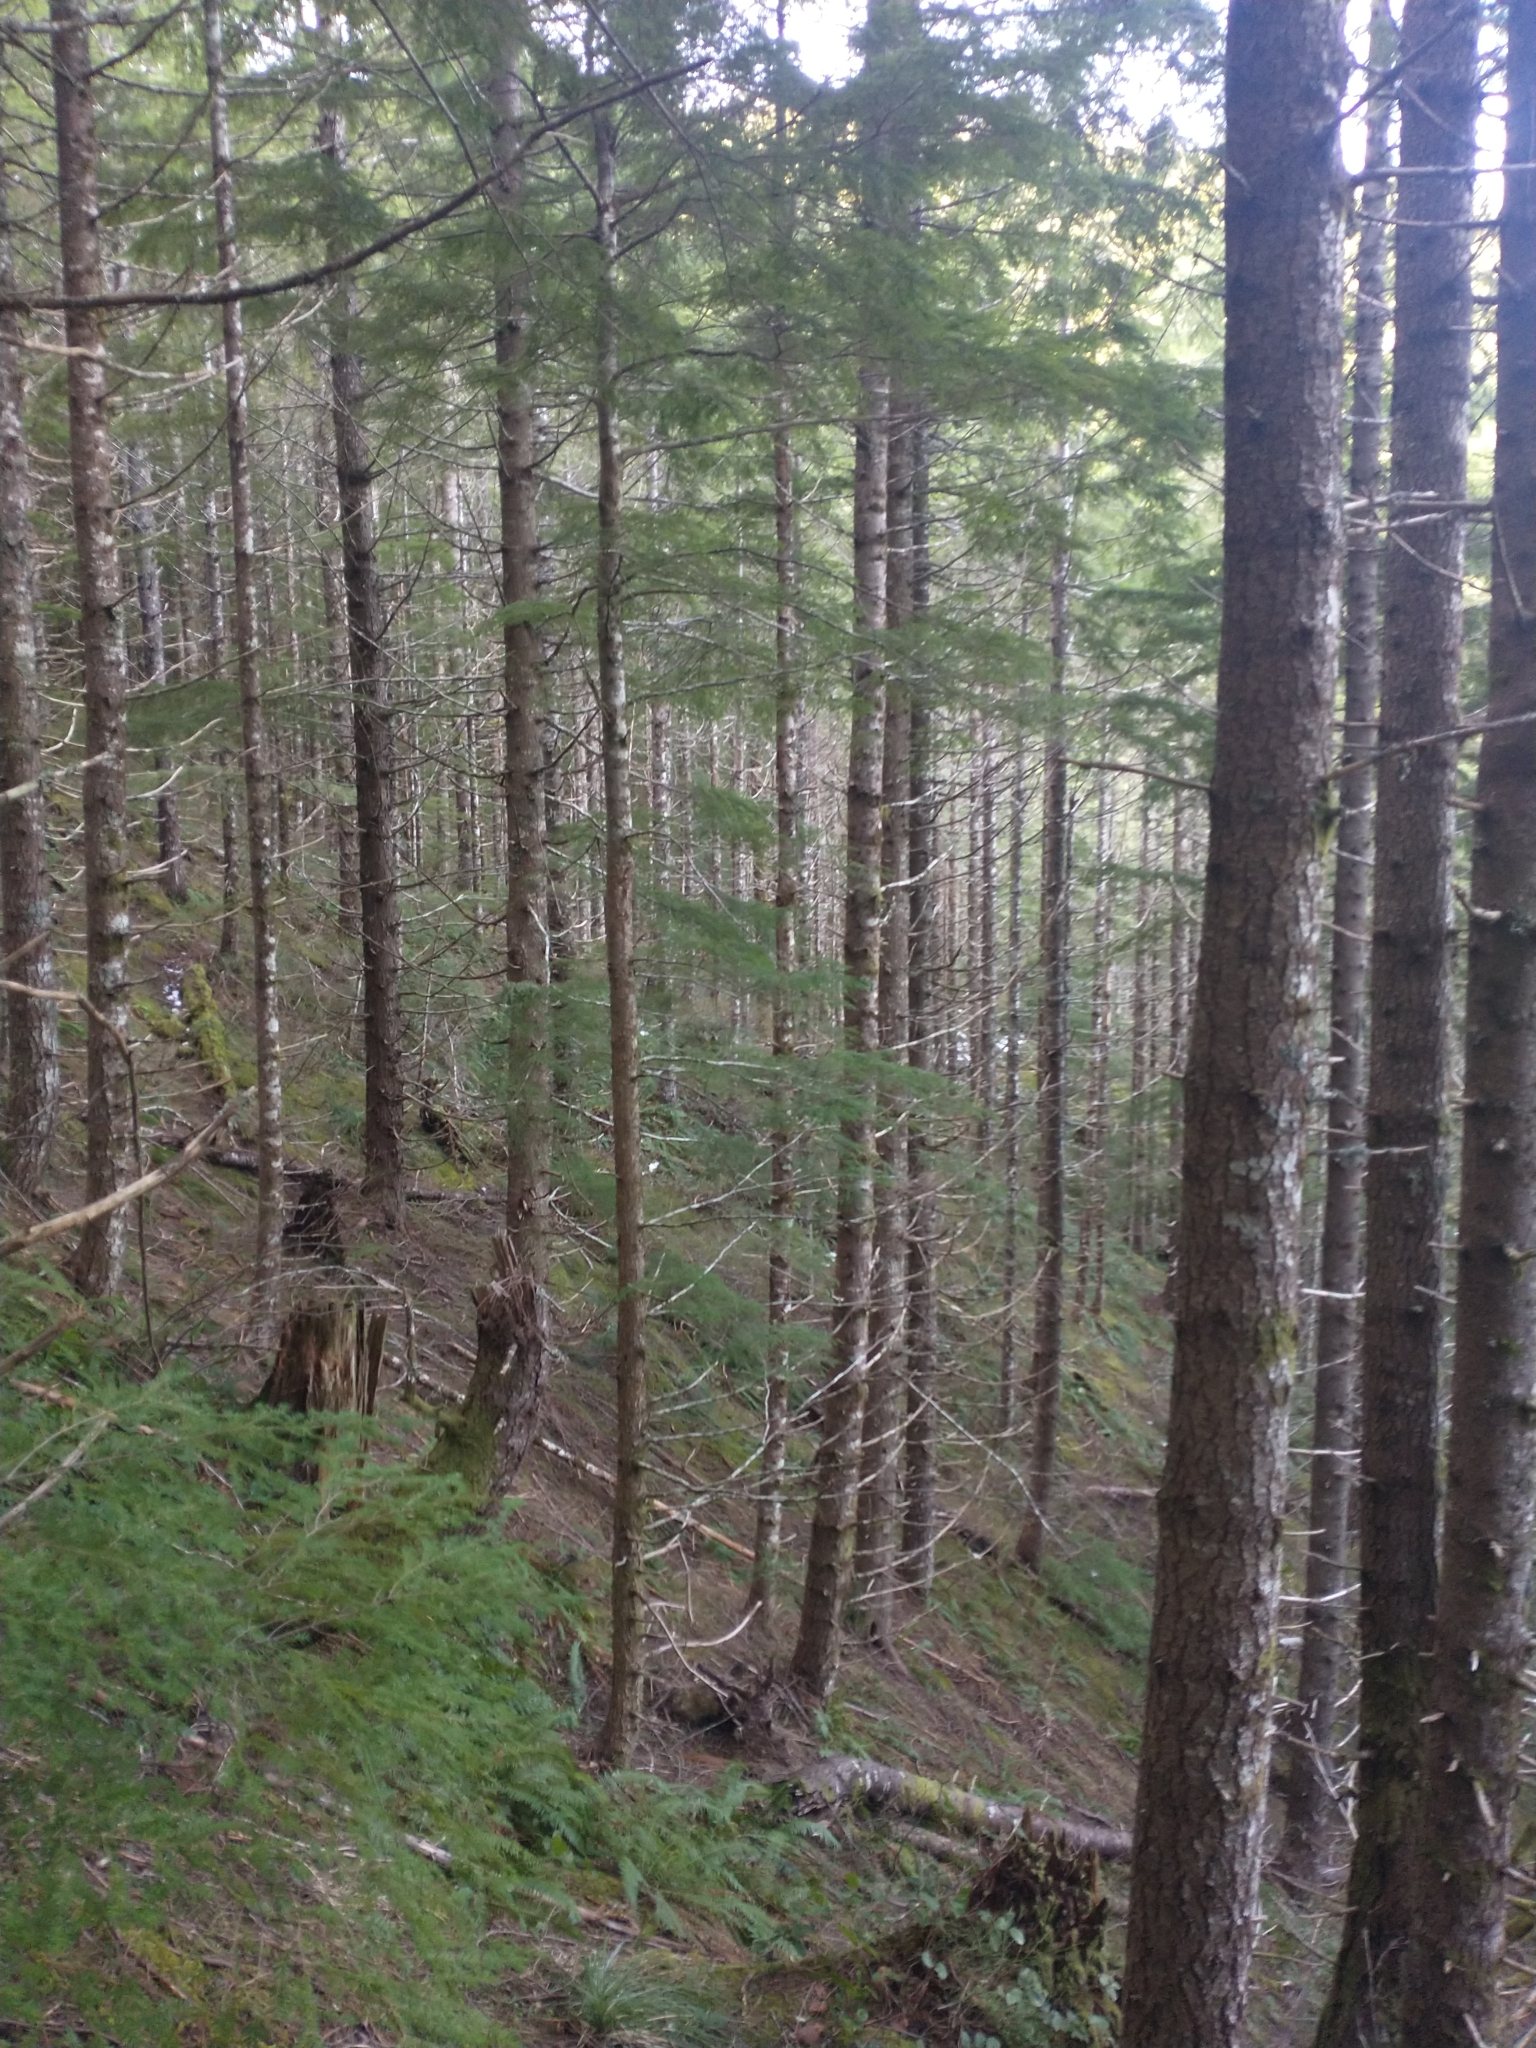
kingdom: Plantae
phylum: Tracheophyta
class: Pinopsida
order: Pinales
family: Pinaceae
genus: Tsuga
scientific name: Tsuga heterophylla
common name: Western hemlock
